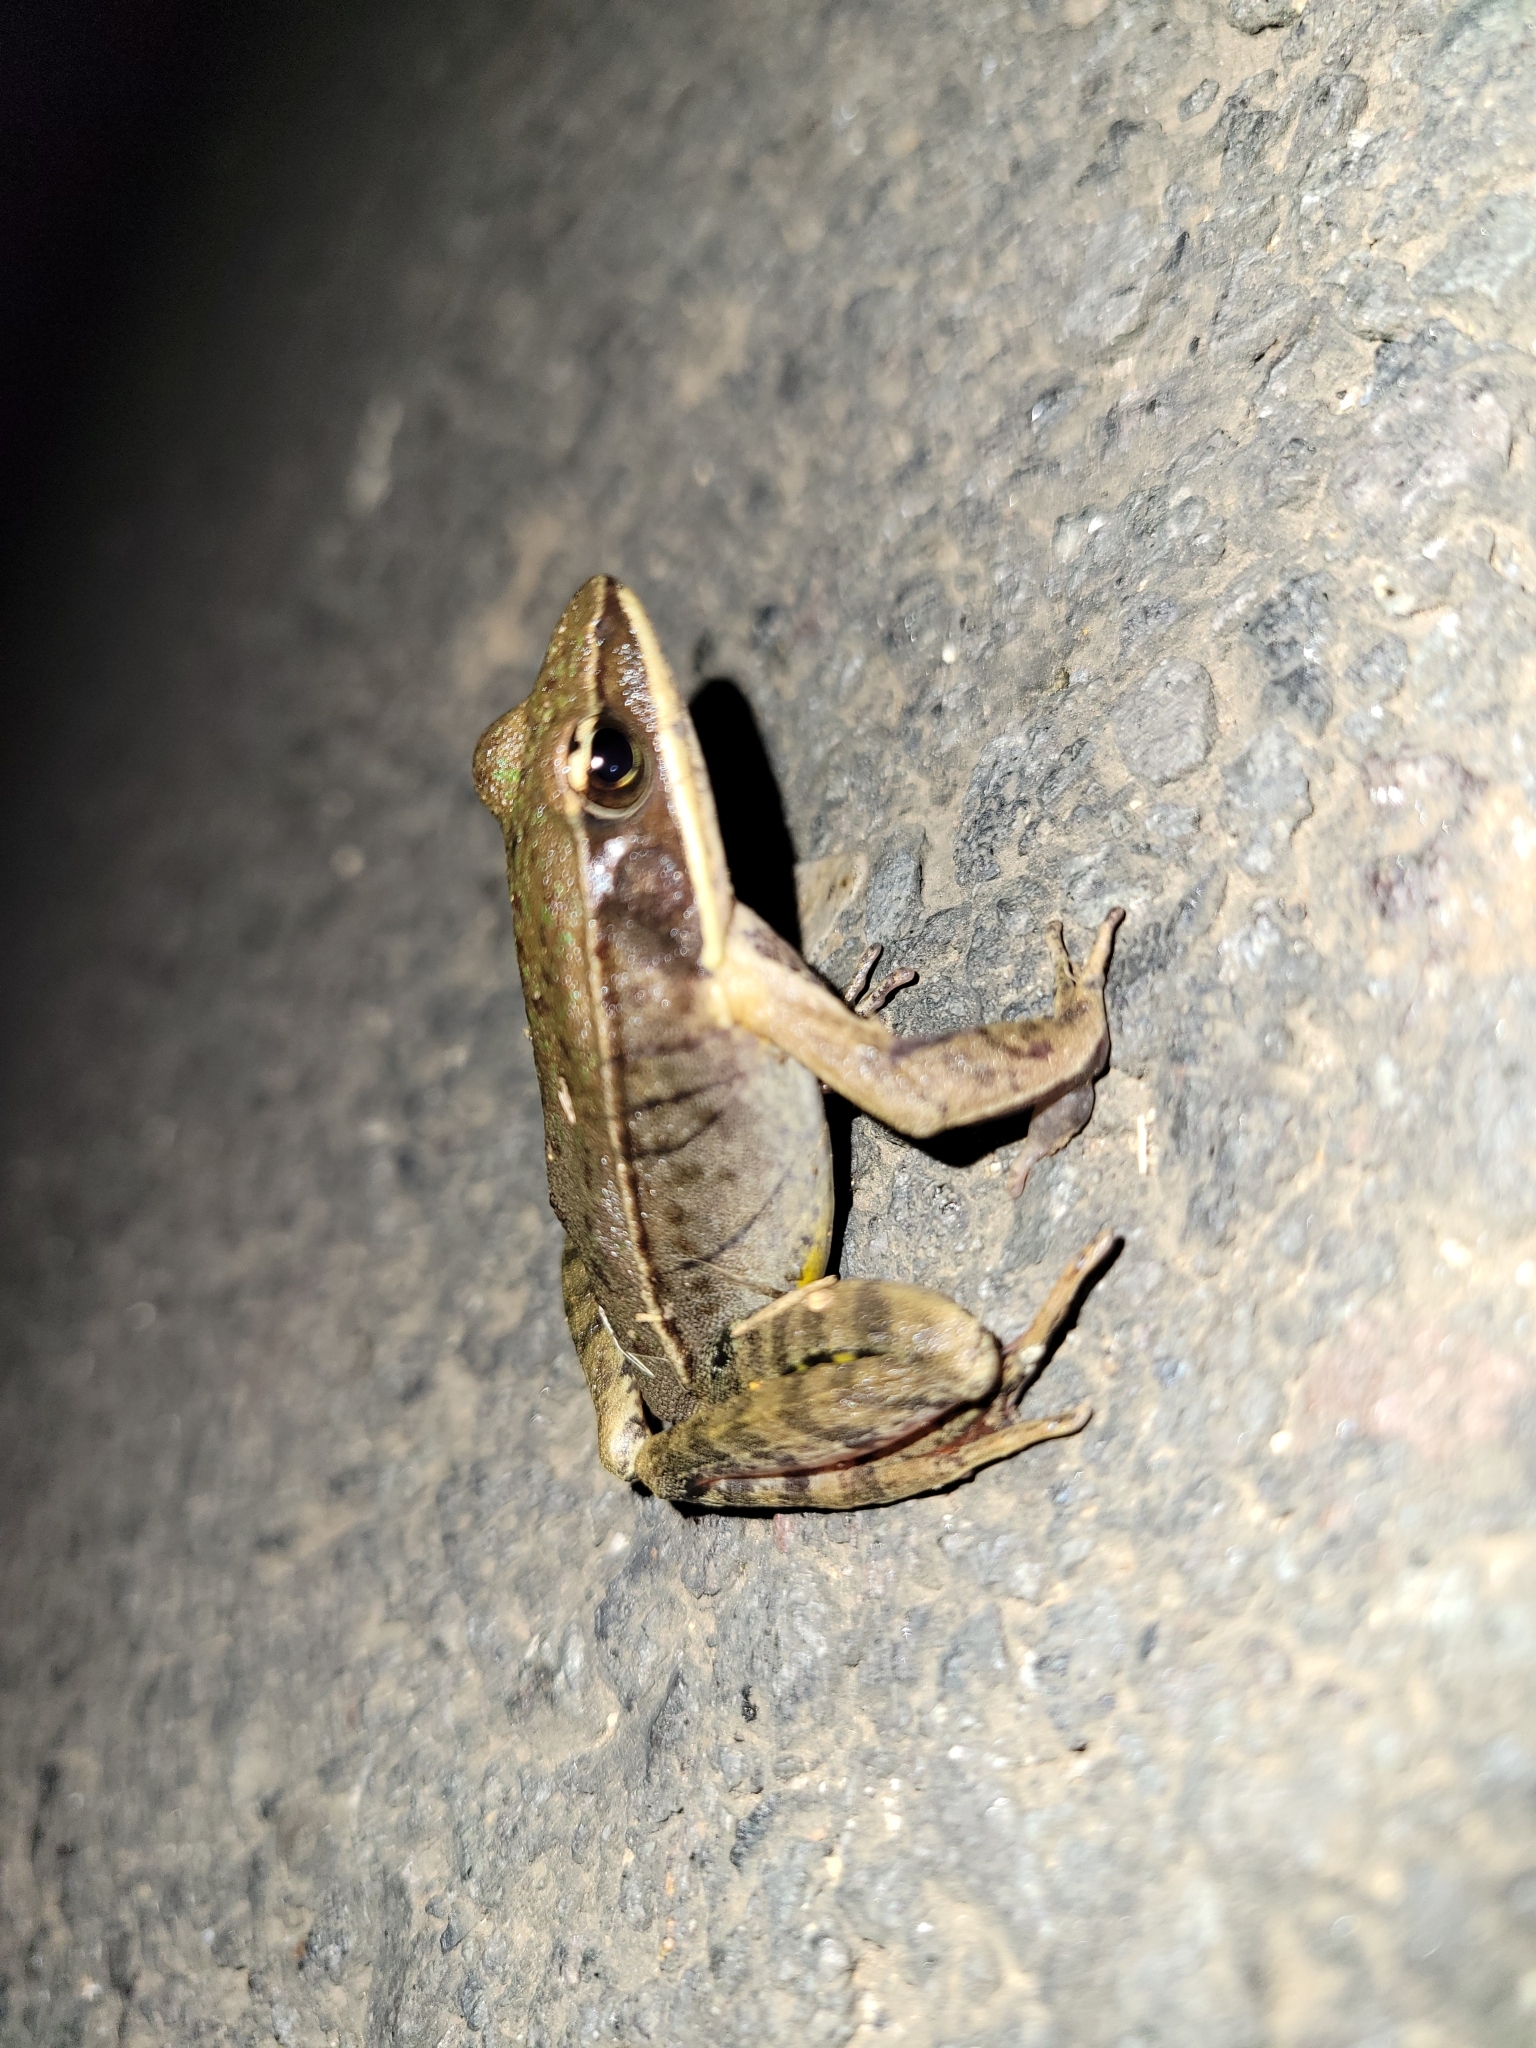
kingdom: Animalia
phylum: Chordata
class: Amphibia
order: Anura
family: Ranidae
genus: Lithobates
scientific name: Lithobates warszewitschii
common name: Warszewitsch's frog
